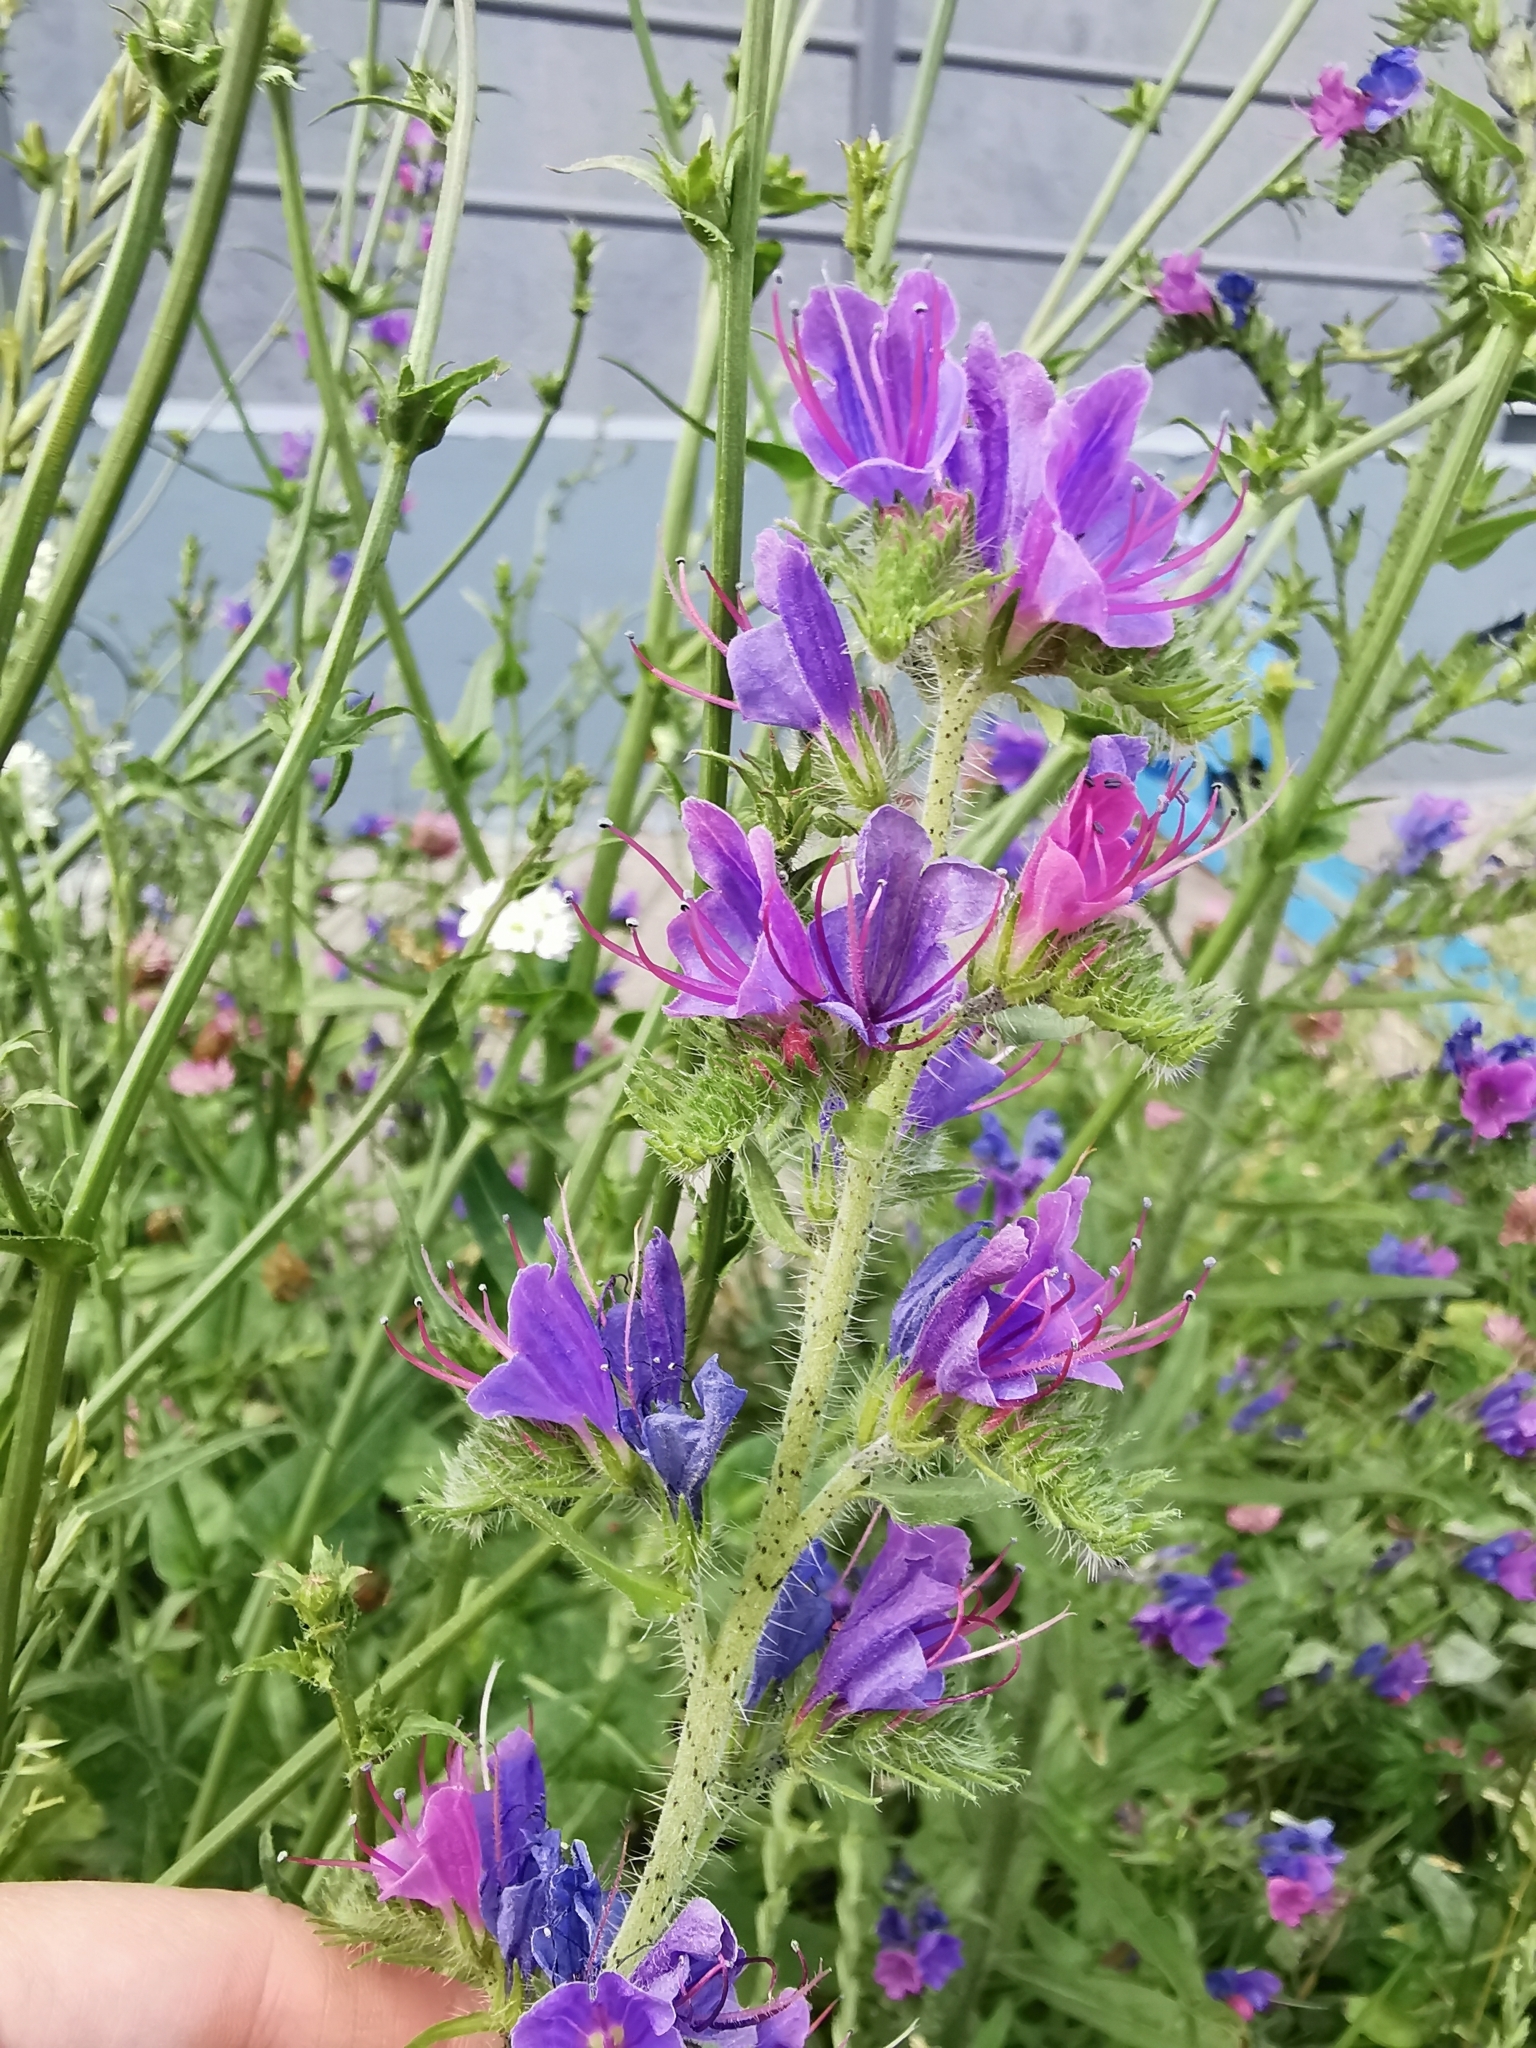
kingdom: Plantae
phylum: Tracheophyta
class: Magnoliopsida
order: Boraginales
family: Boraginaceae
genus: Echium
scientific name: Echium vulgare
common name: Common viper's bugloss
